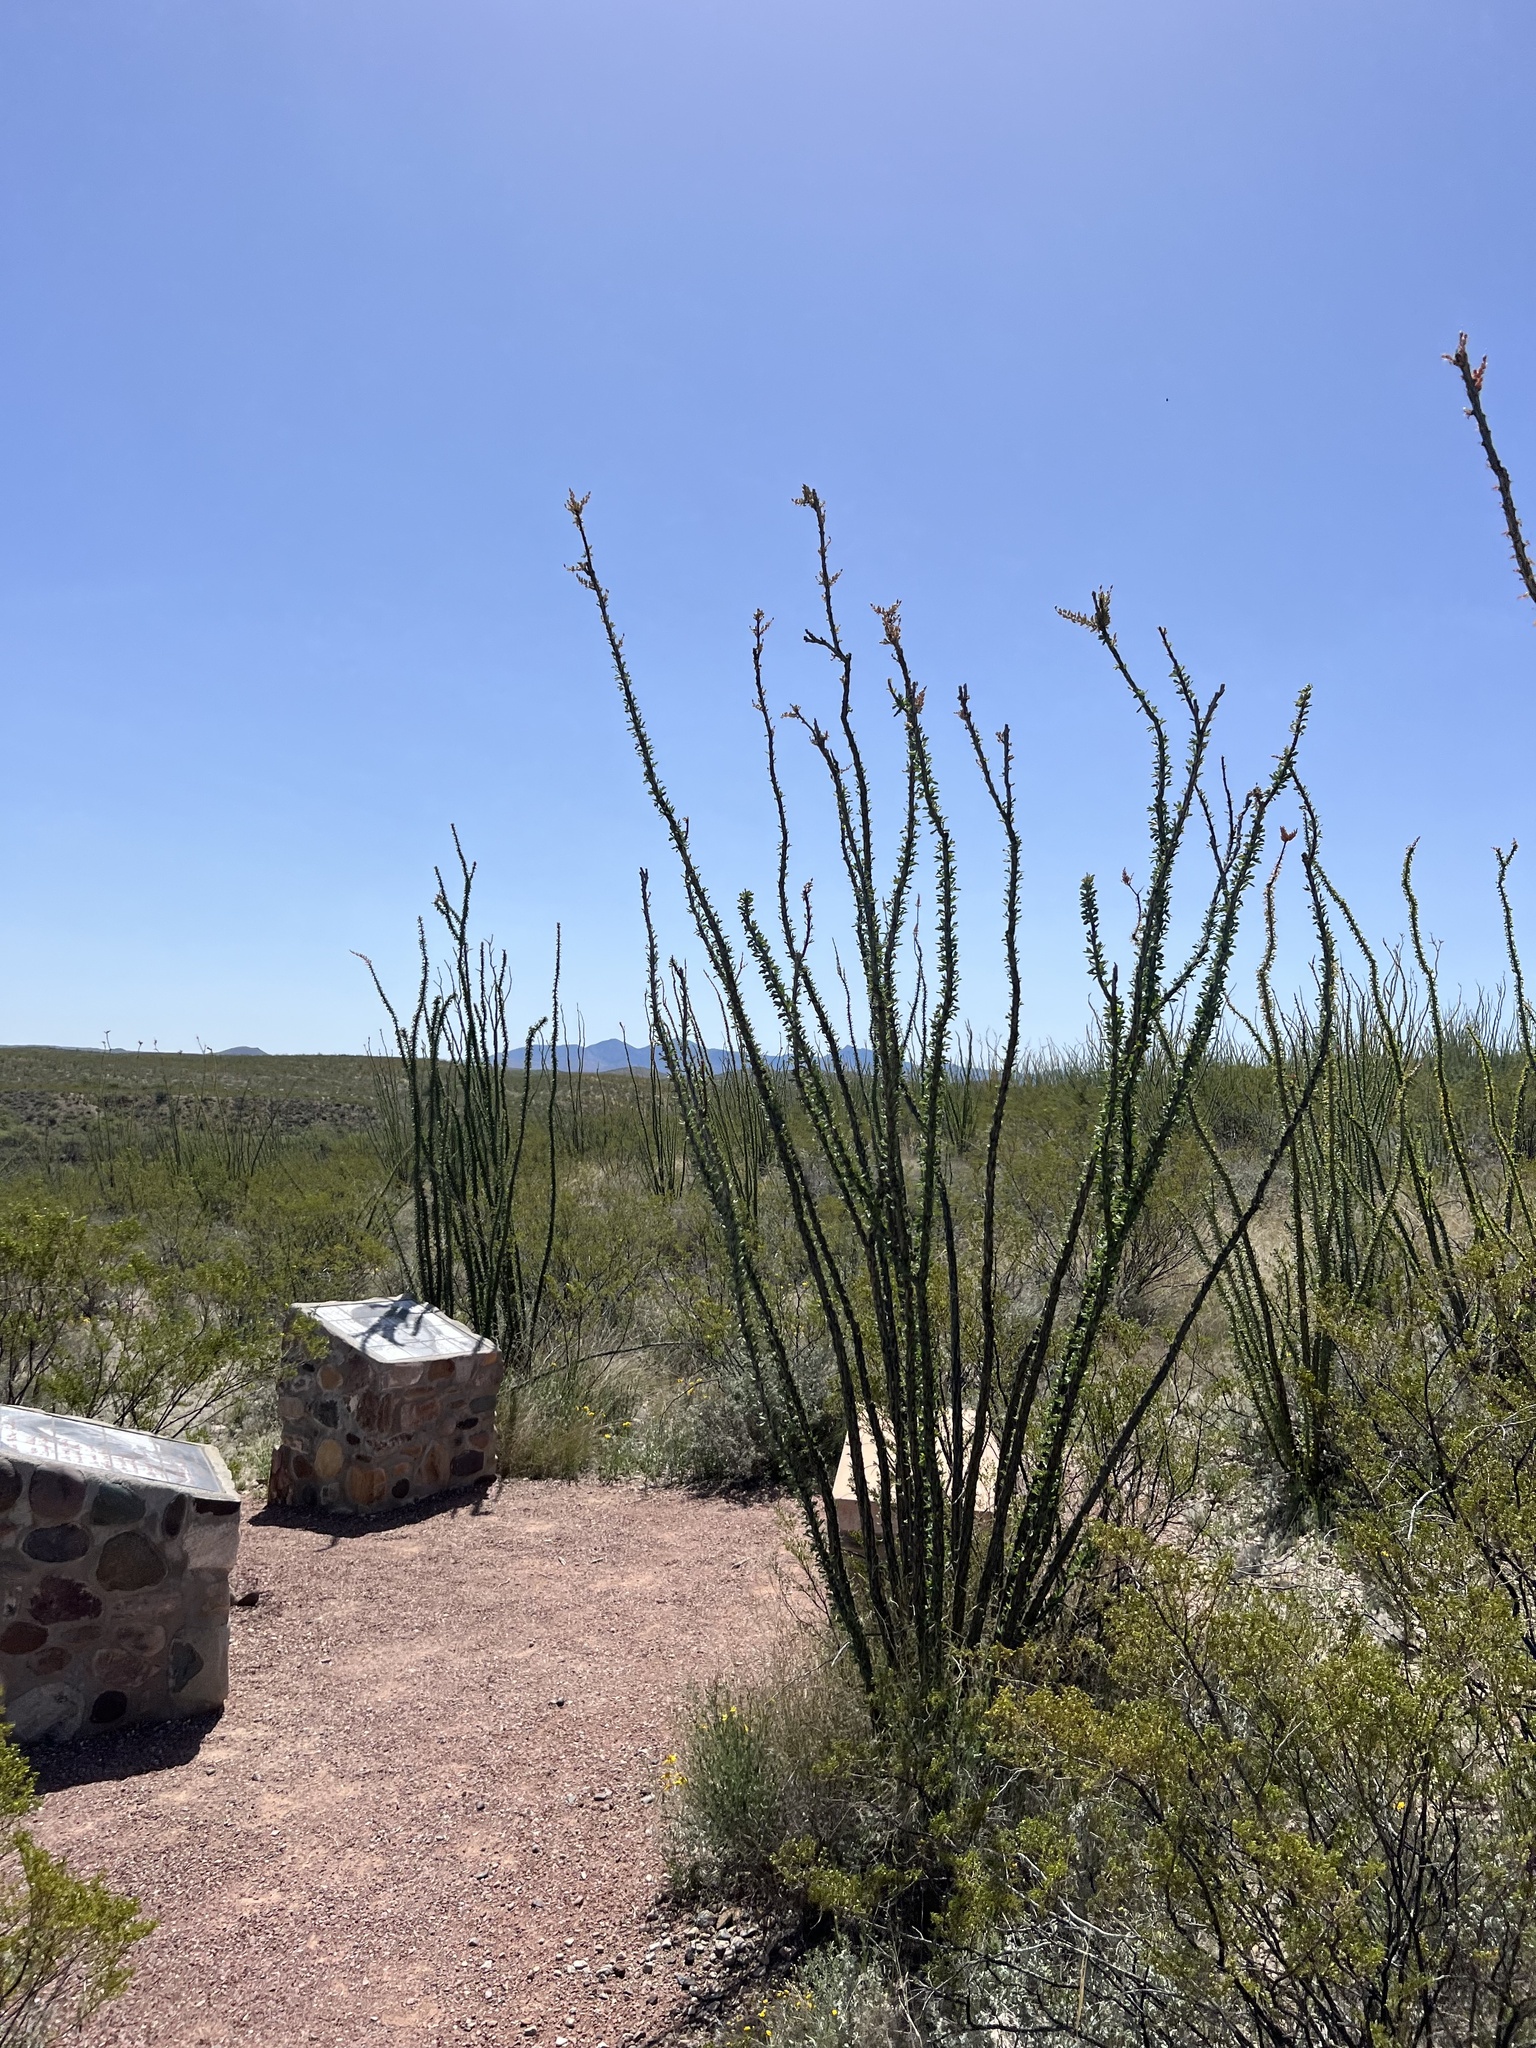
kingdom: Plantae
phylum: Tracheophyta
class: Magnoliopsida
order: Ericales
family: Fouquieriaceae
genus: Fouquieria
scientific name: Fouquieria splendens
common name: Vine-cactus
